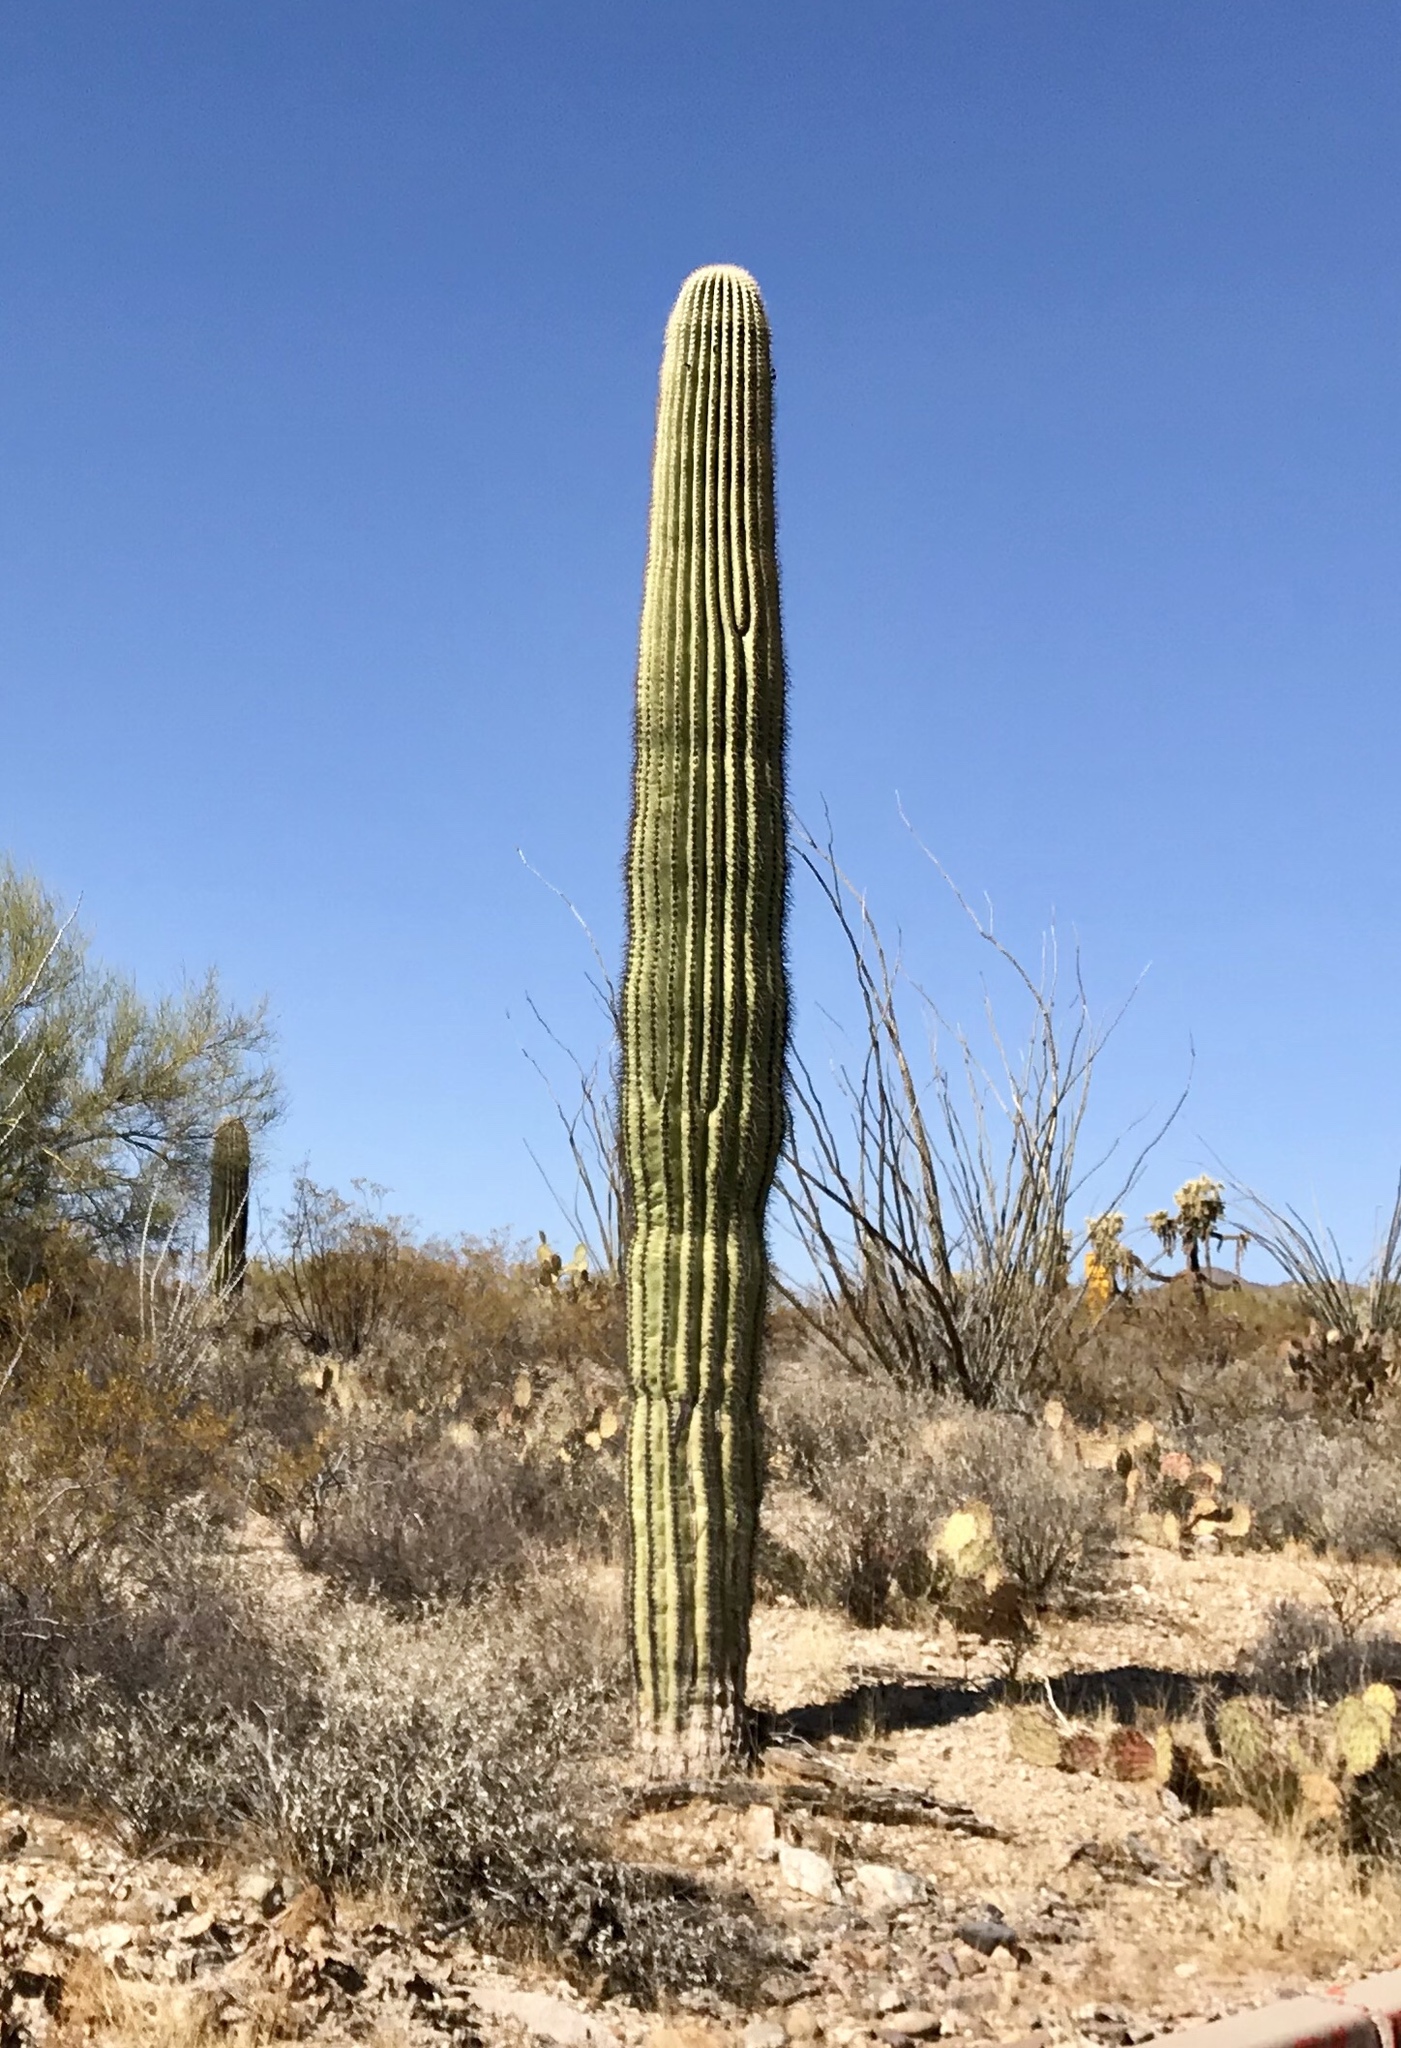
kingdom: Plantae
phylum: Tracheophyta
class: Magnoliopsida
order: Caryophyllales
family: Cactaceae
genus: Carnegiea
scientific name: Carnegiea gigantea
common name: Saguaro
